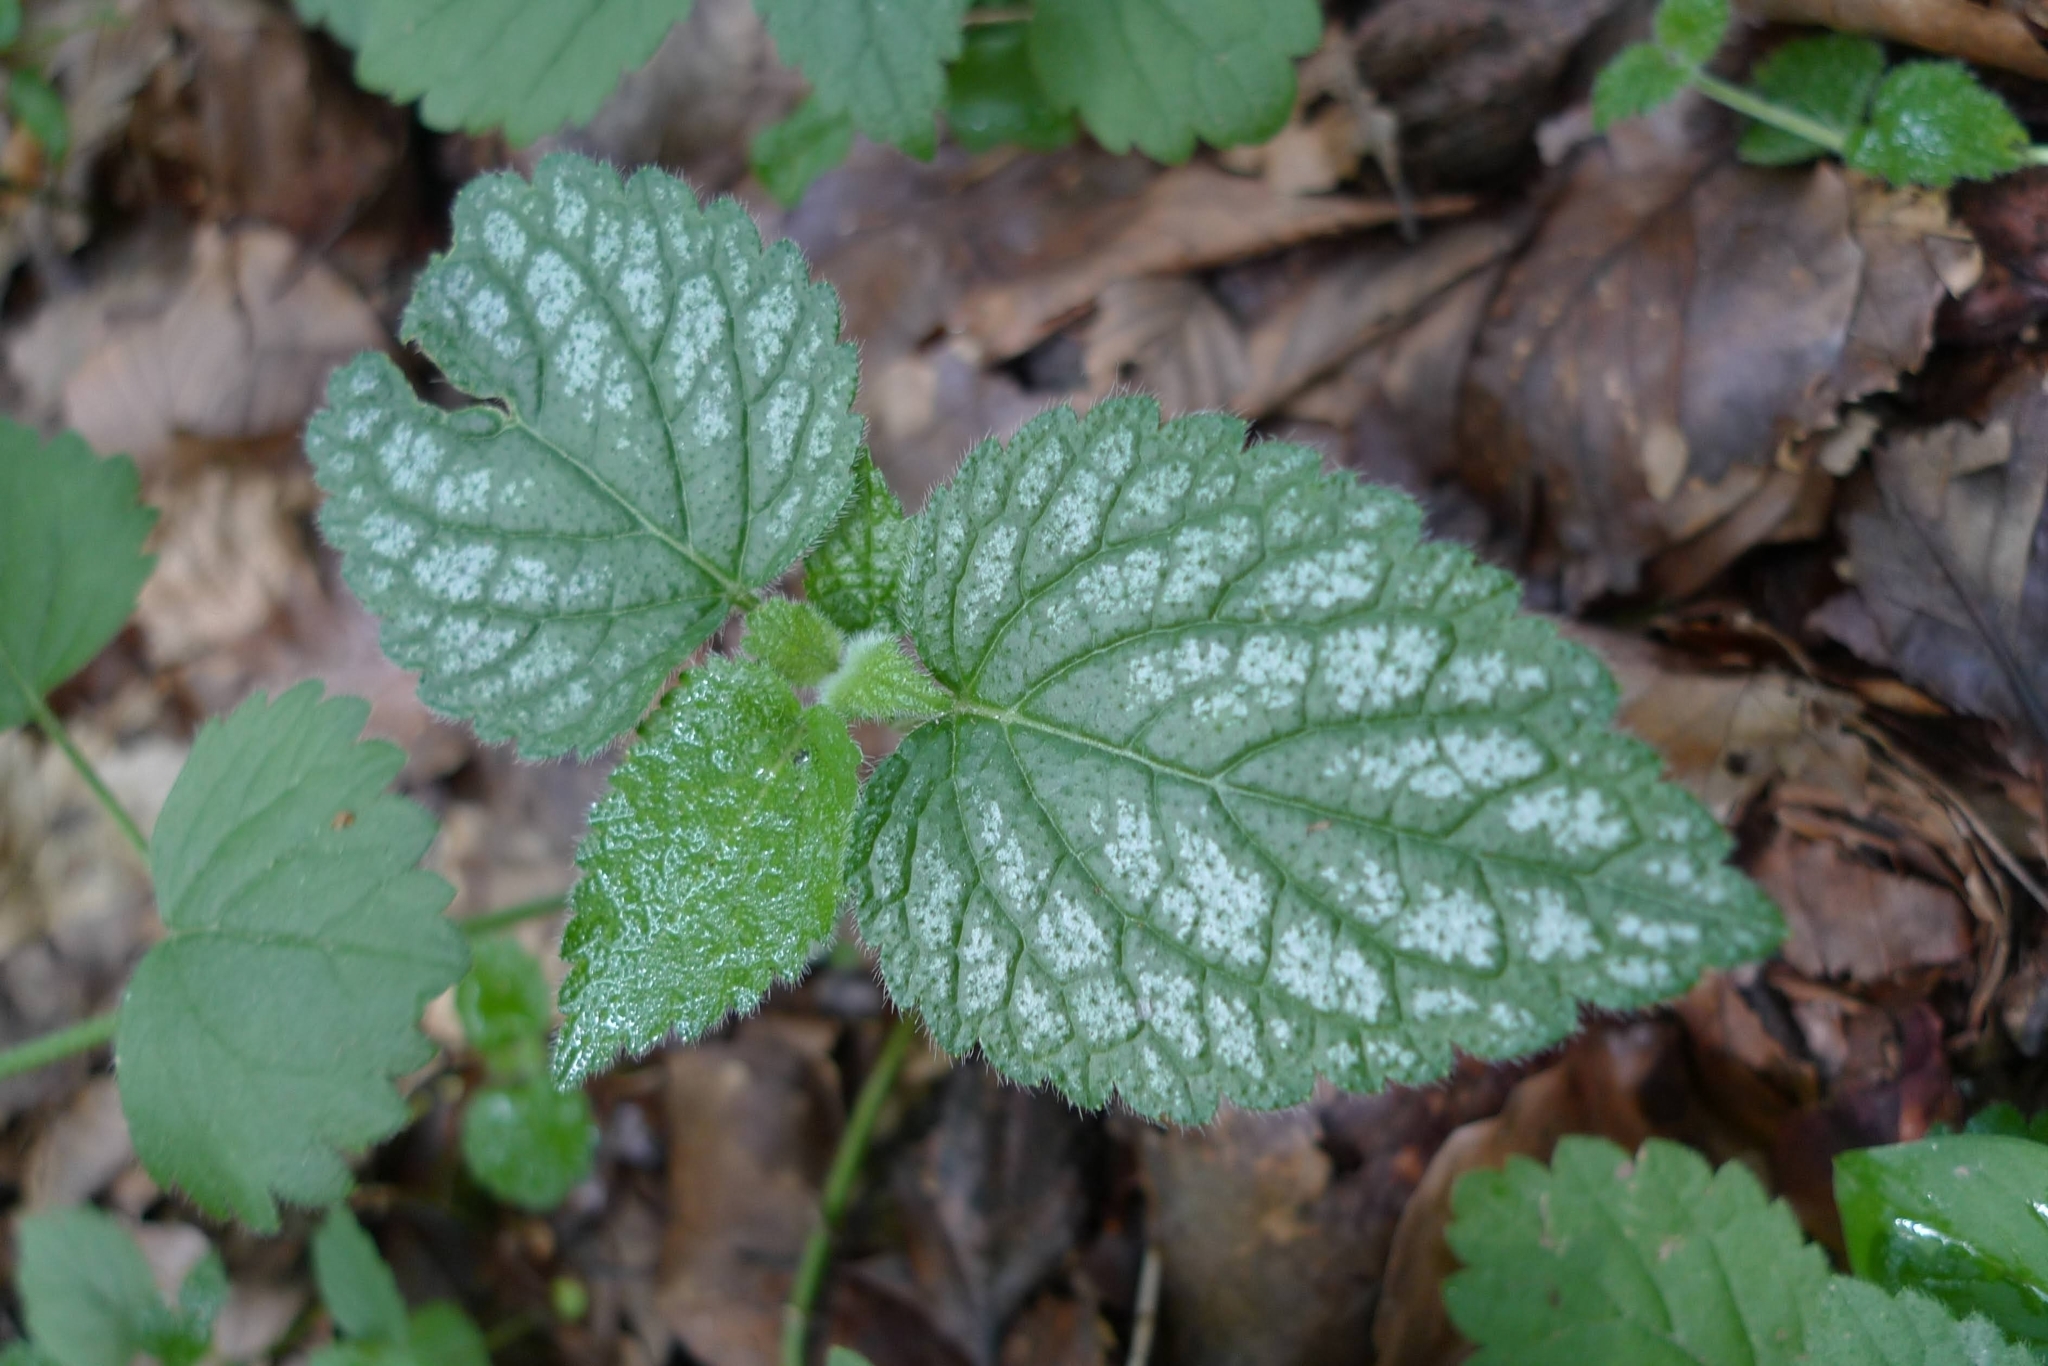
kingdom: Plantae
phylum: Tracheophyta
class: Magnoliopsida
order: Lamiales
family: Lamiaceae
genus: Lamium
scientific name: Lamium galeobdolon
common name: Yellow archangel
